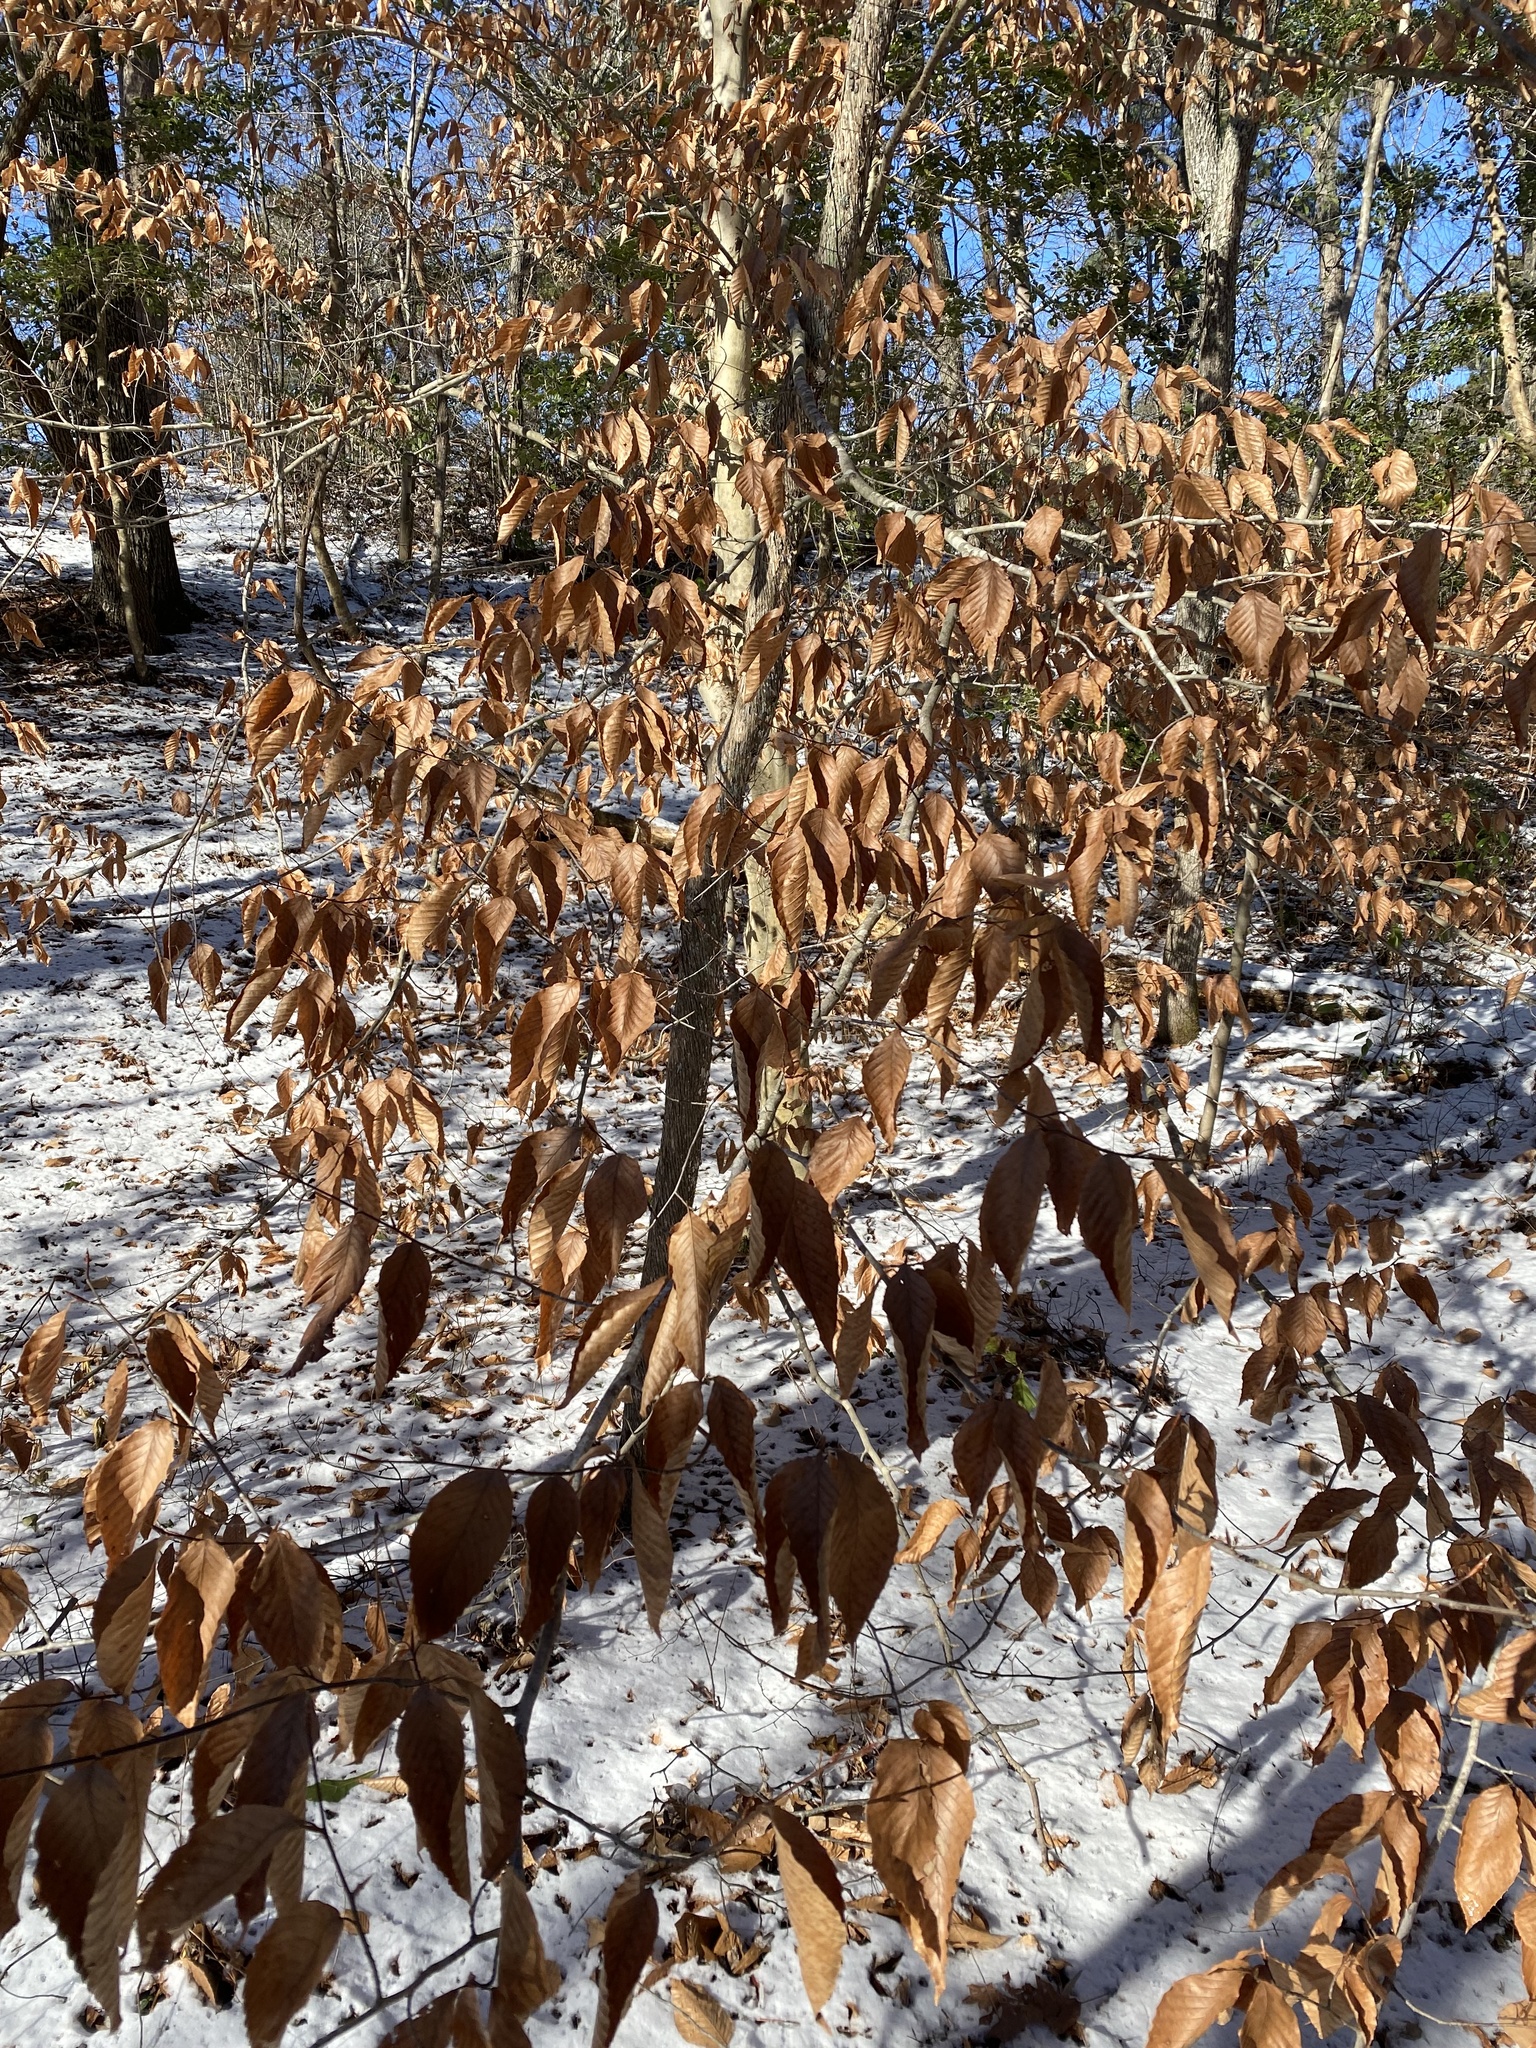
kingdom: Plantae
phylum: Tracheophyta
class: Magnoliopsida
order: Fagales
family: Fagaceae
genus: Fagus
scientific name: Fagus grandifolia
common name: American beech
